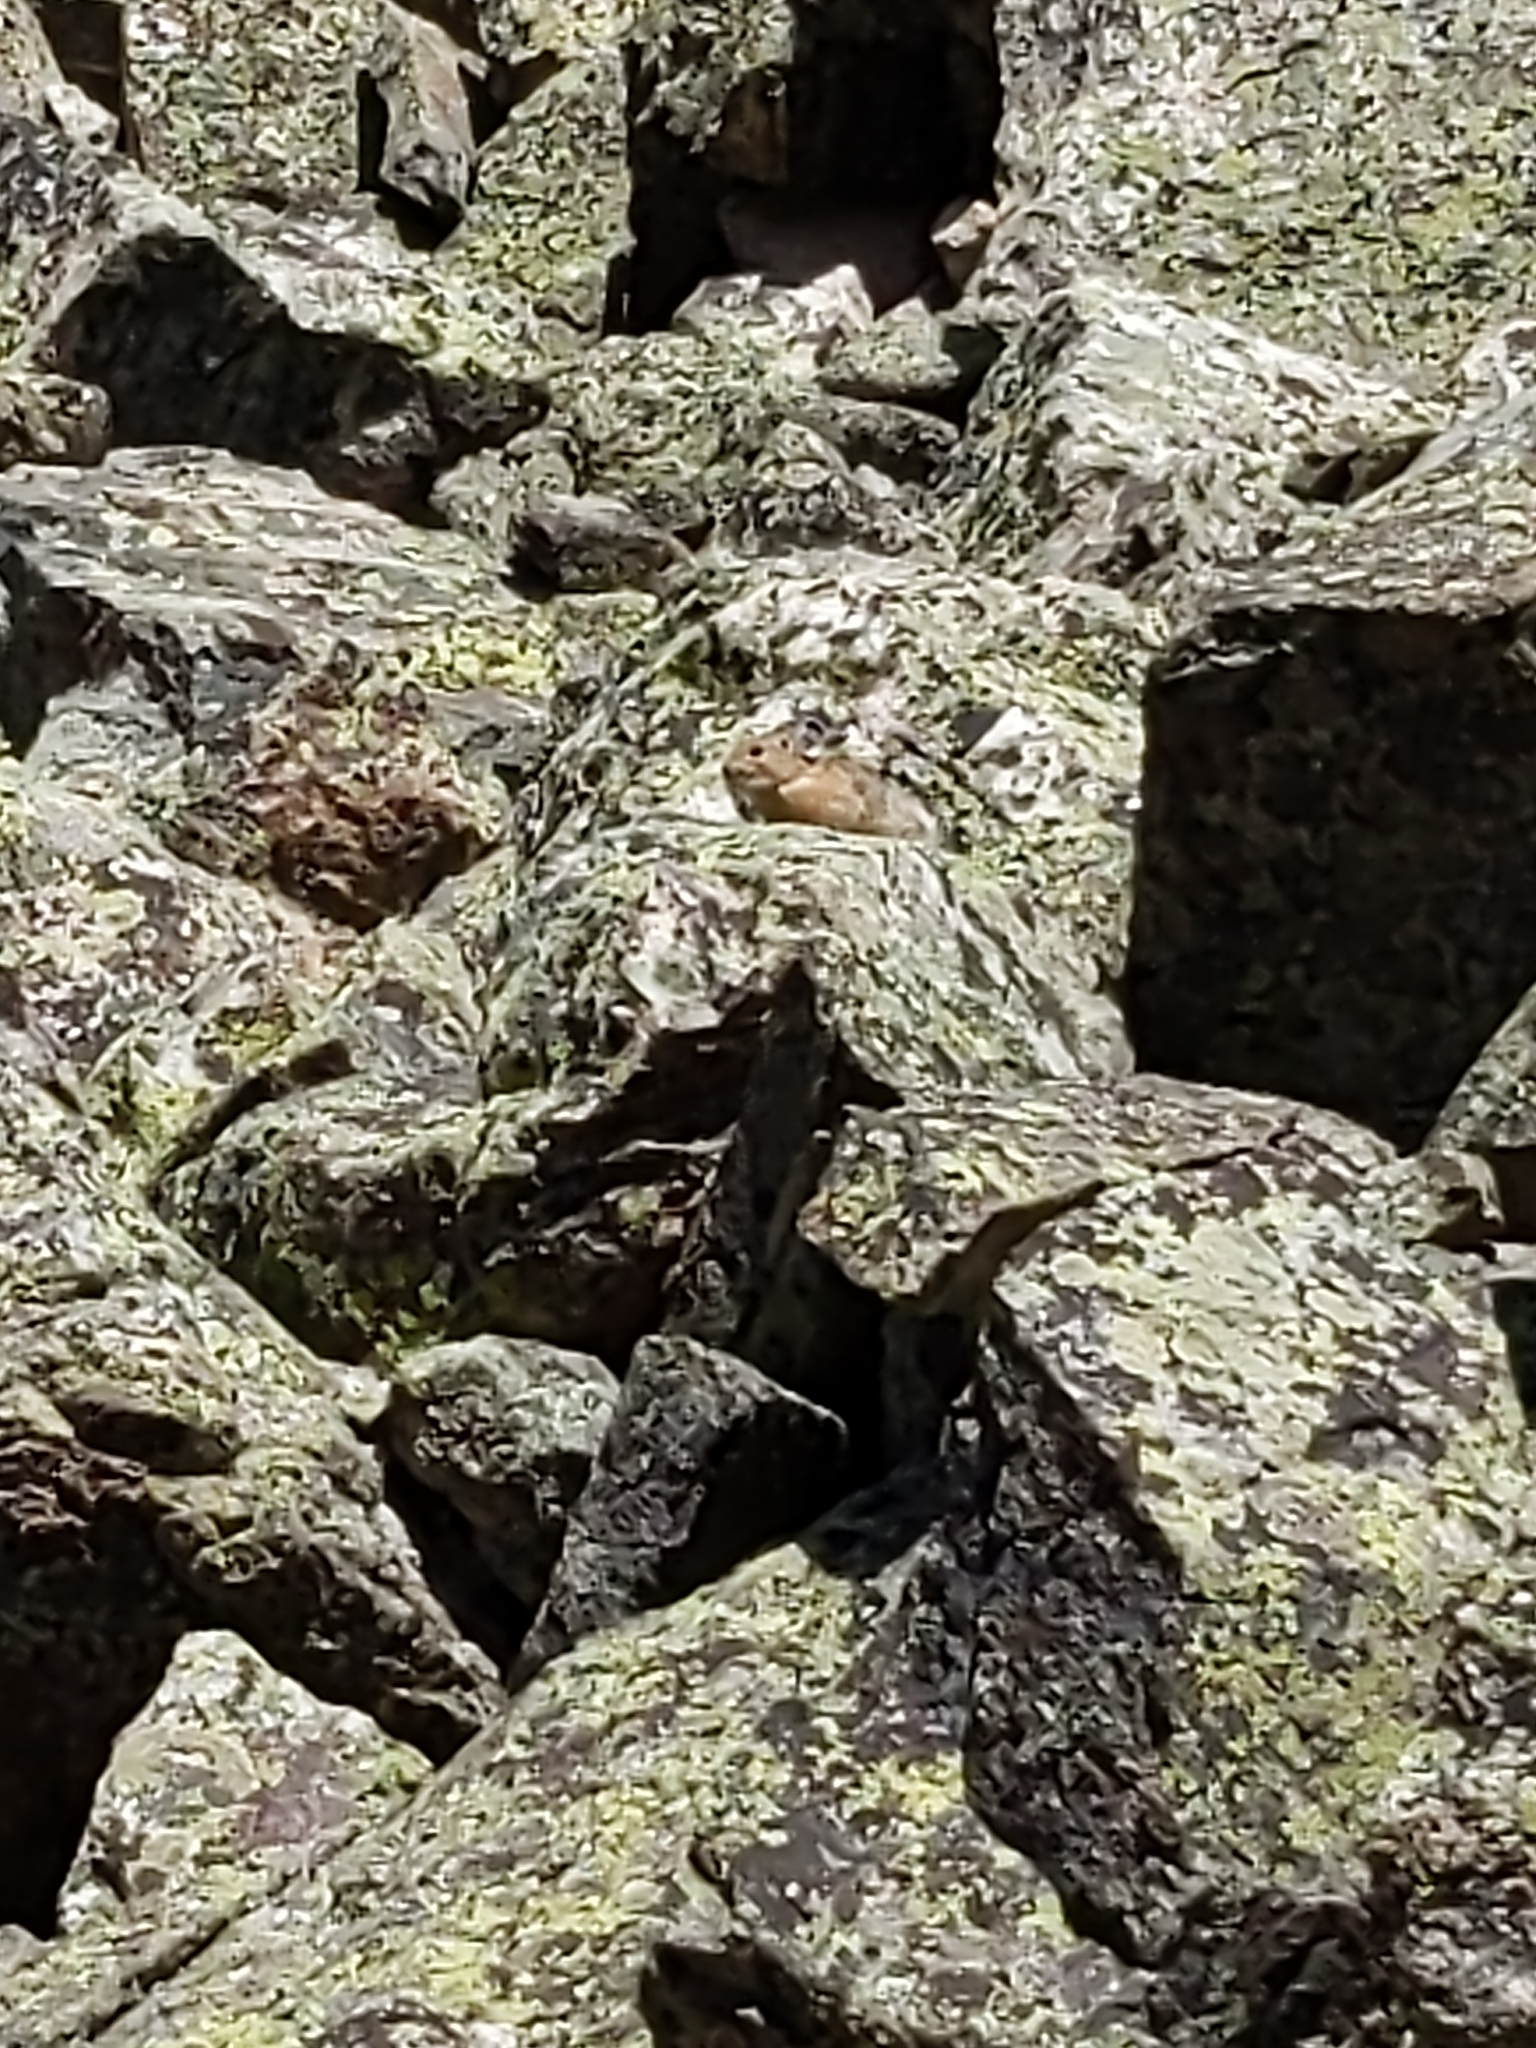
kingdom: Animalia
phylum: Chordata
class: Mammalia
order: Lagomorpha
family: Ochotonidae
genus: Ochotona
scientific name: Ochotona princeps
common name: American pika
